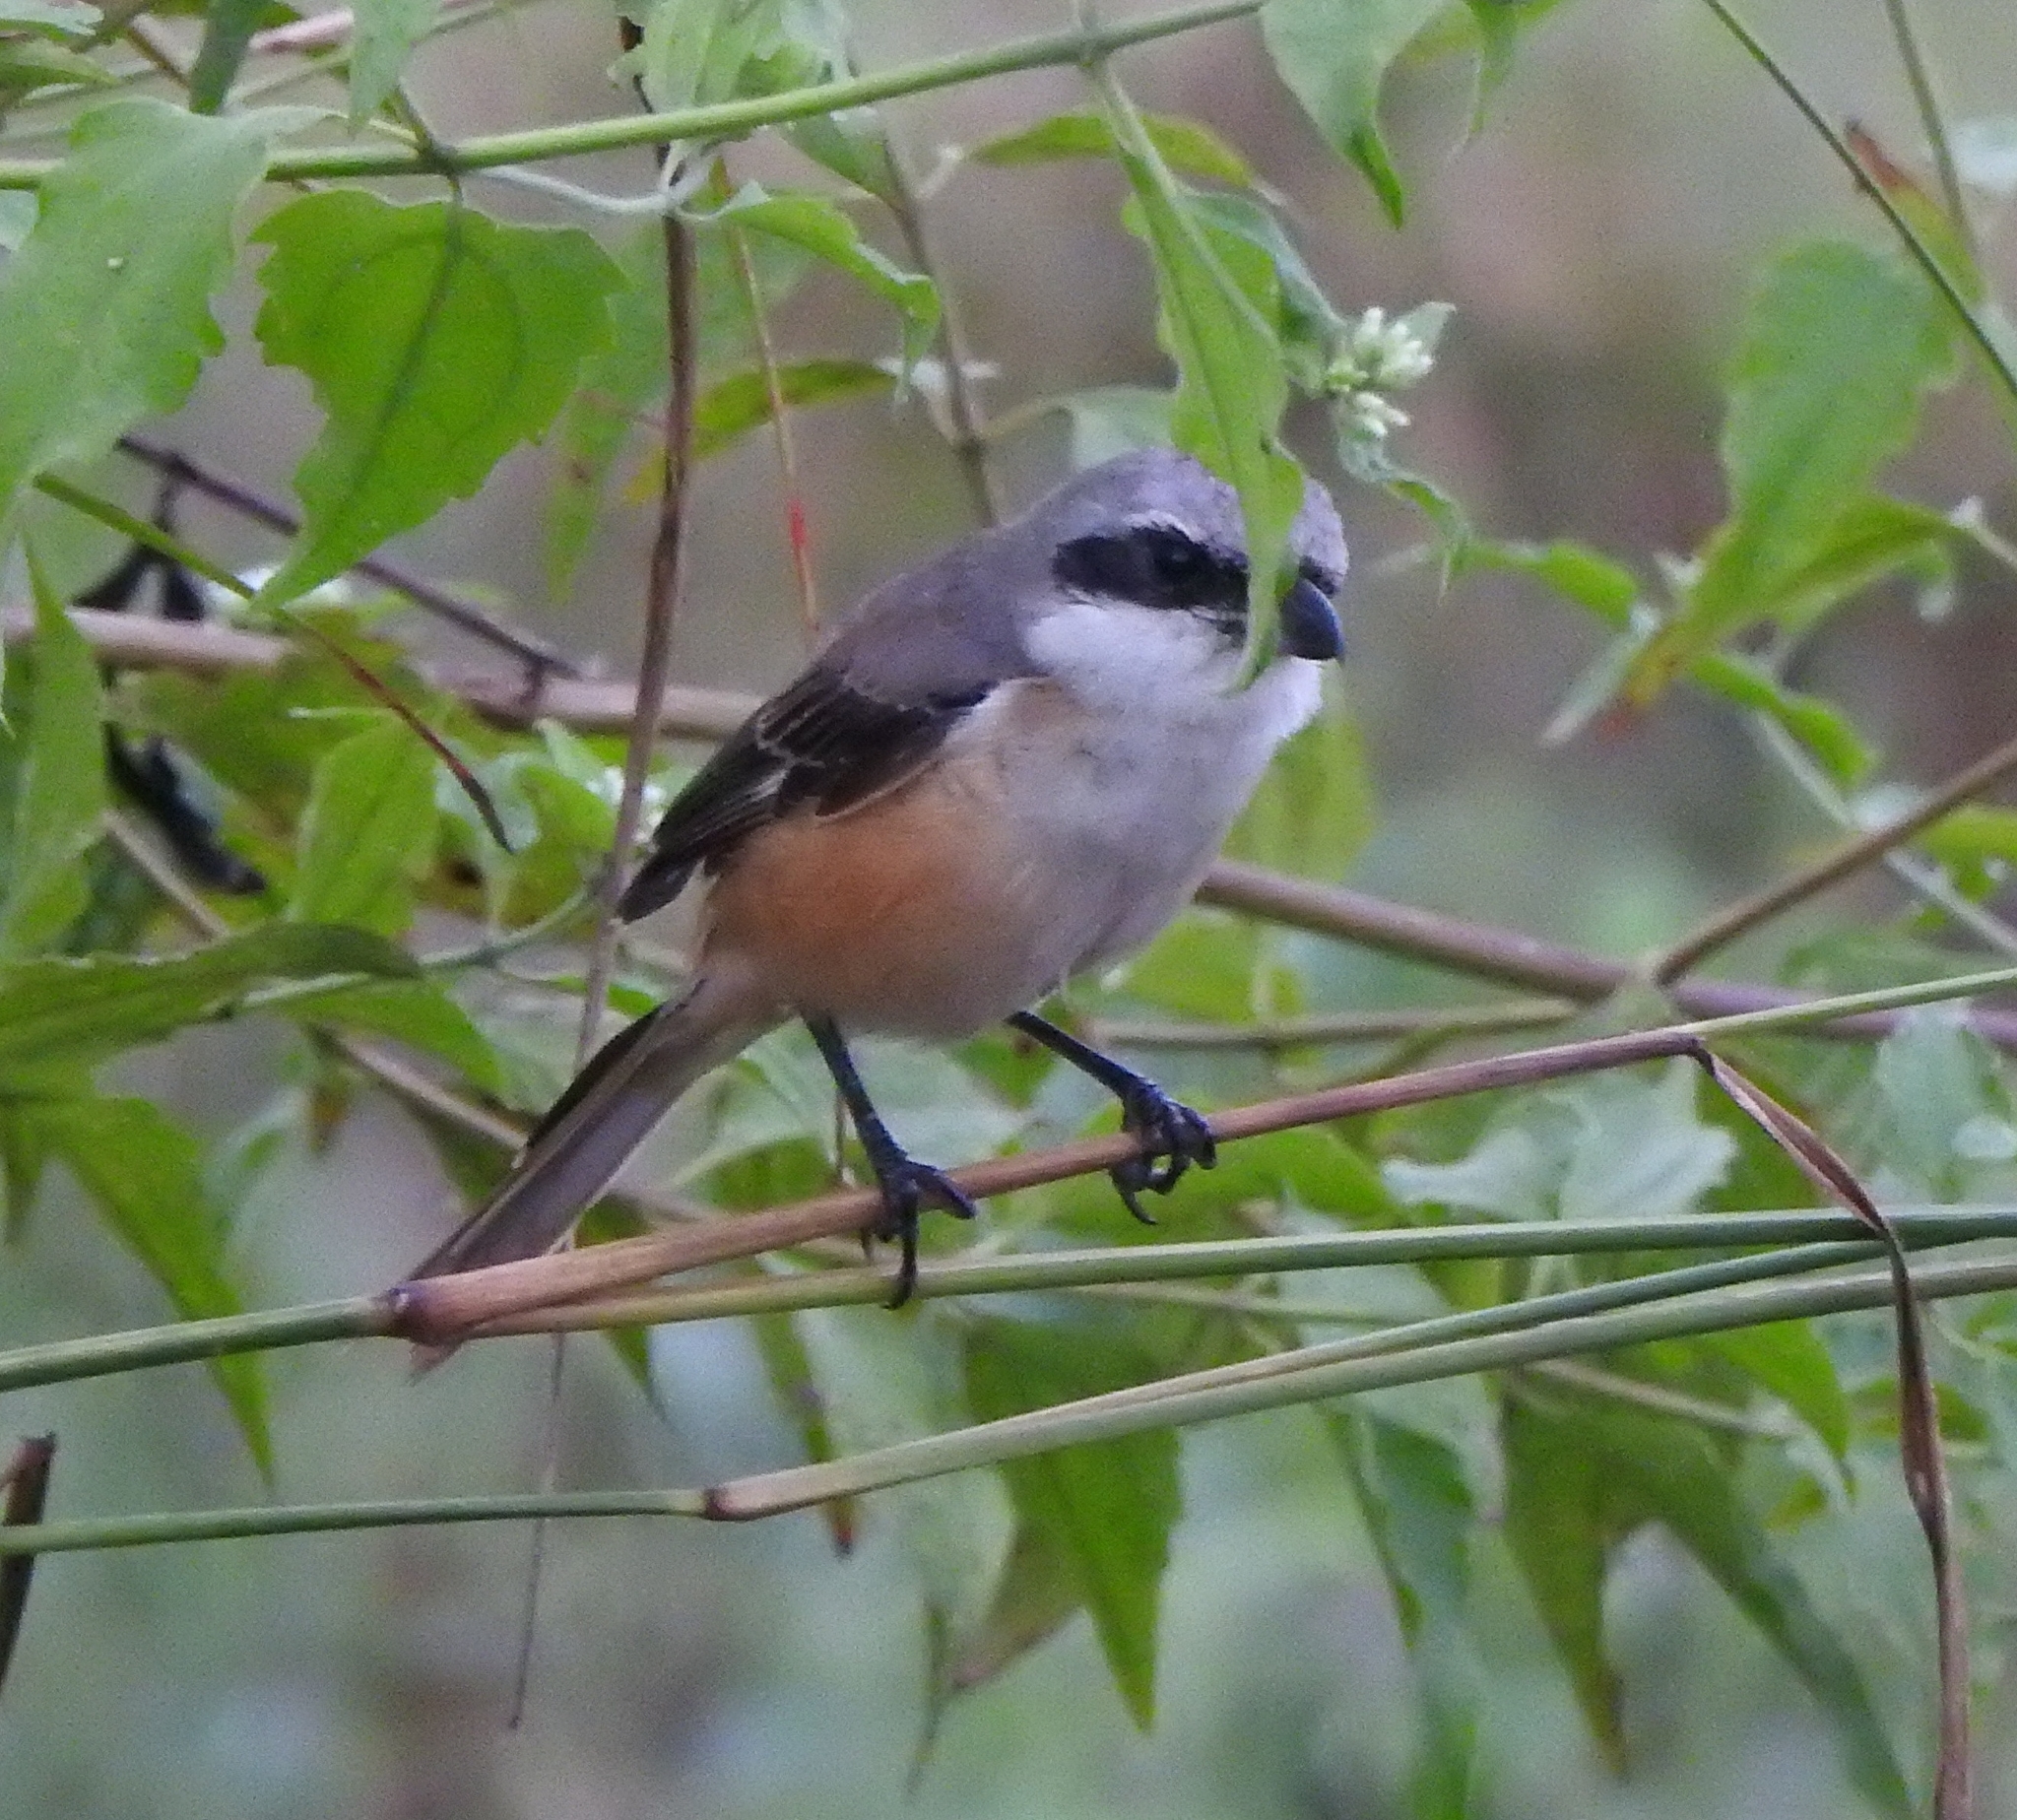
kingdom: Animalia
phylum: Chordata
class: Aves
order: Passeriformes
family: Laniidae
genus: Lanius
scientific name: Lanius schach
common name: Long-tailed shrike
